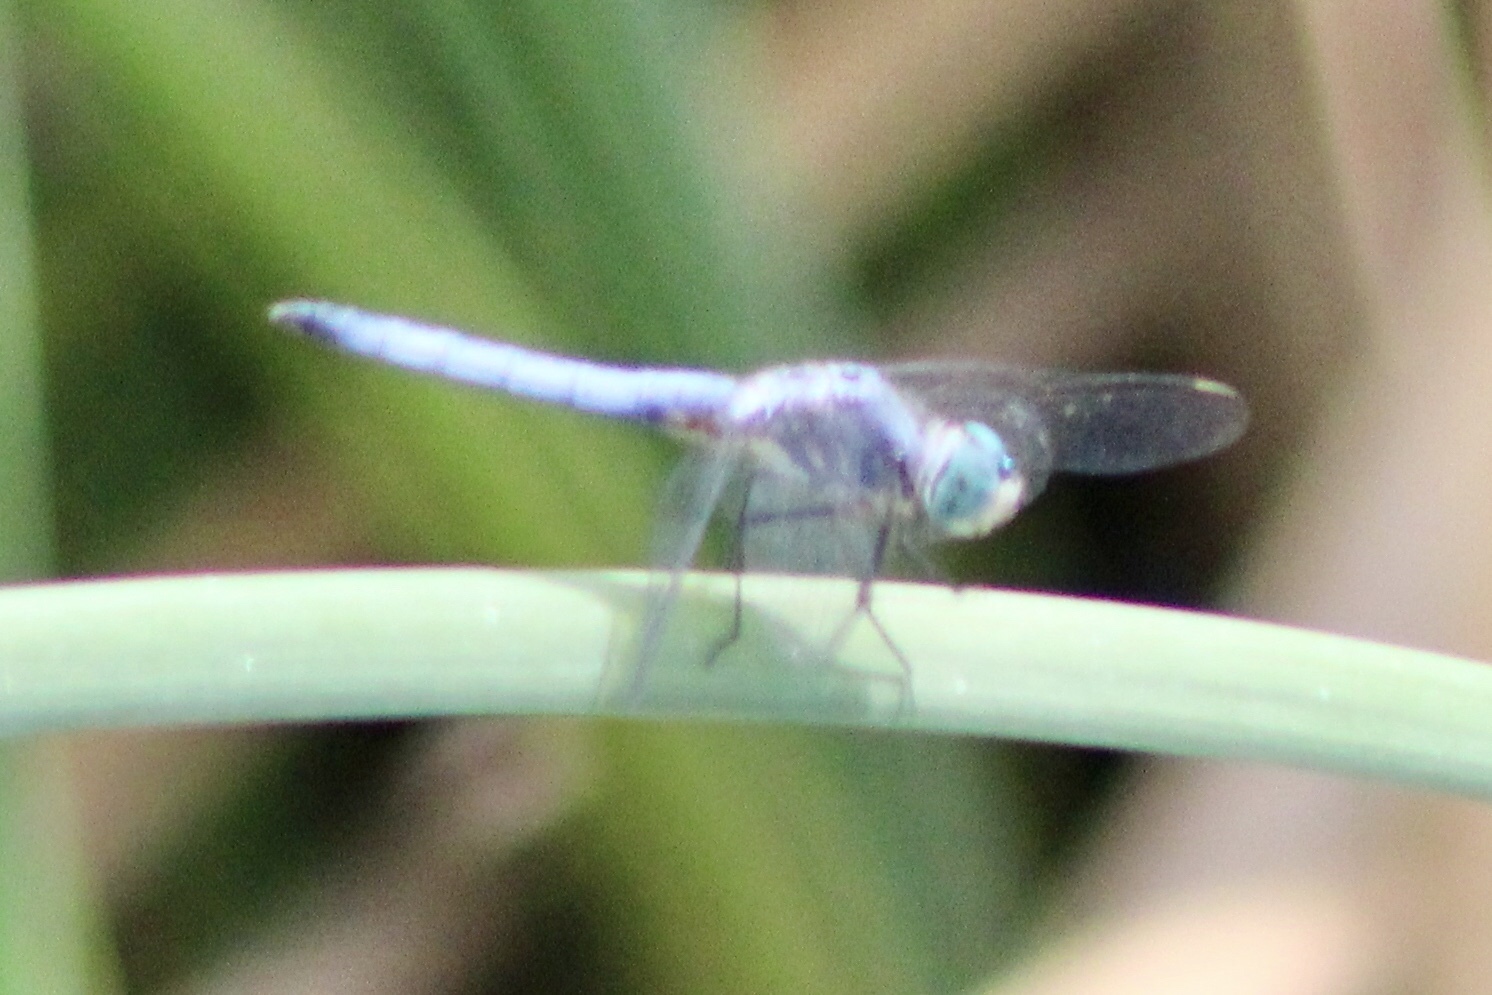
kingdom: Animalia
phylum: Arthropoda
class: Insecta
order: Odonata
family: Libellulidae
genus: Pachydiplax
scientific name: Pachydiplax longipennis
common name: Blue dasher
